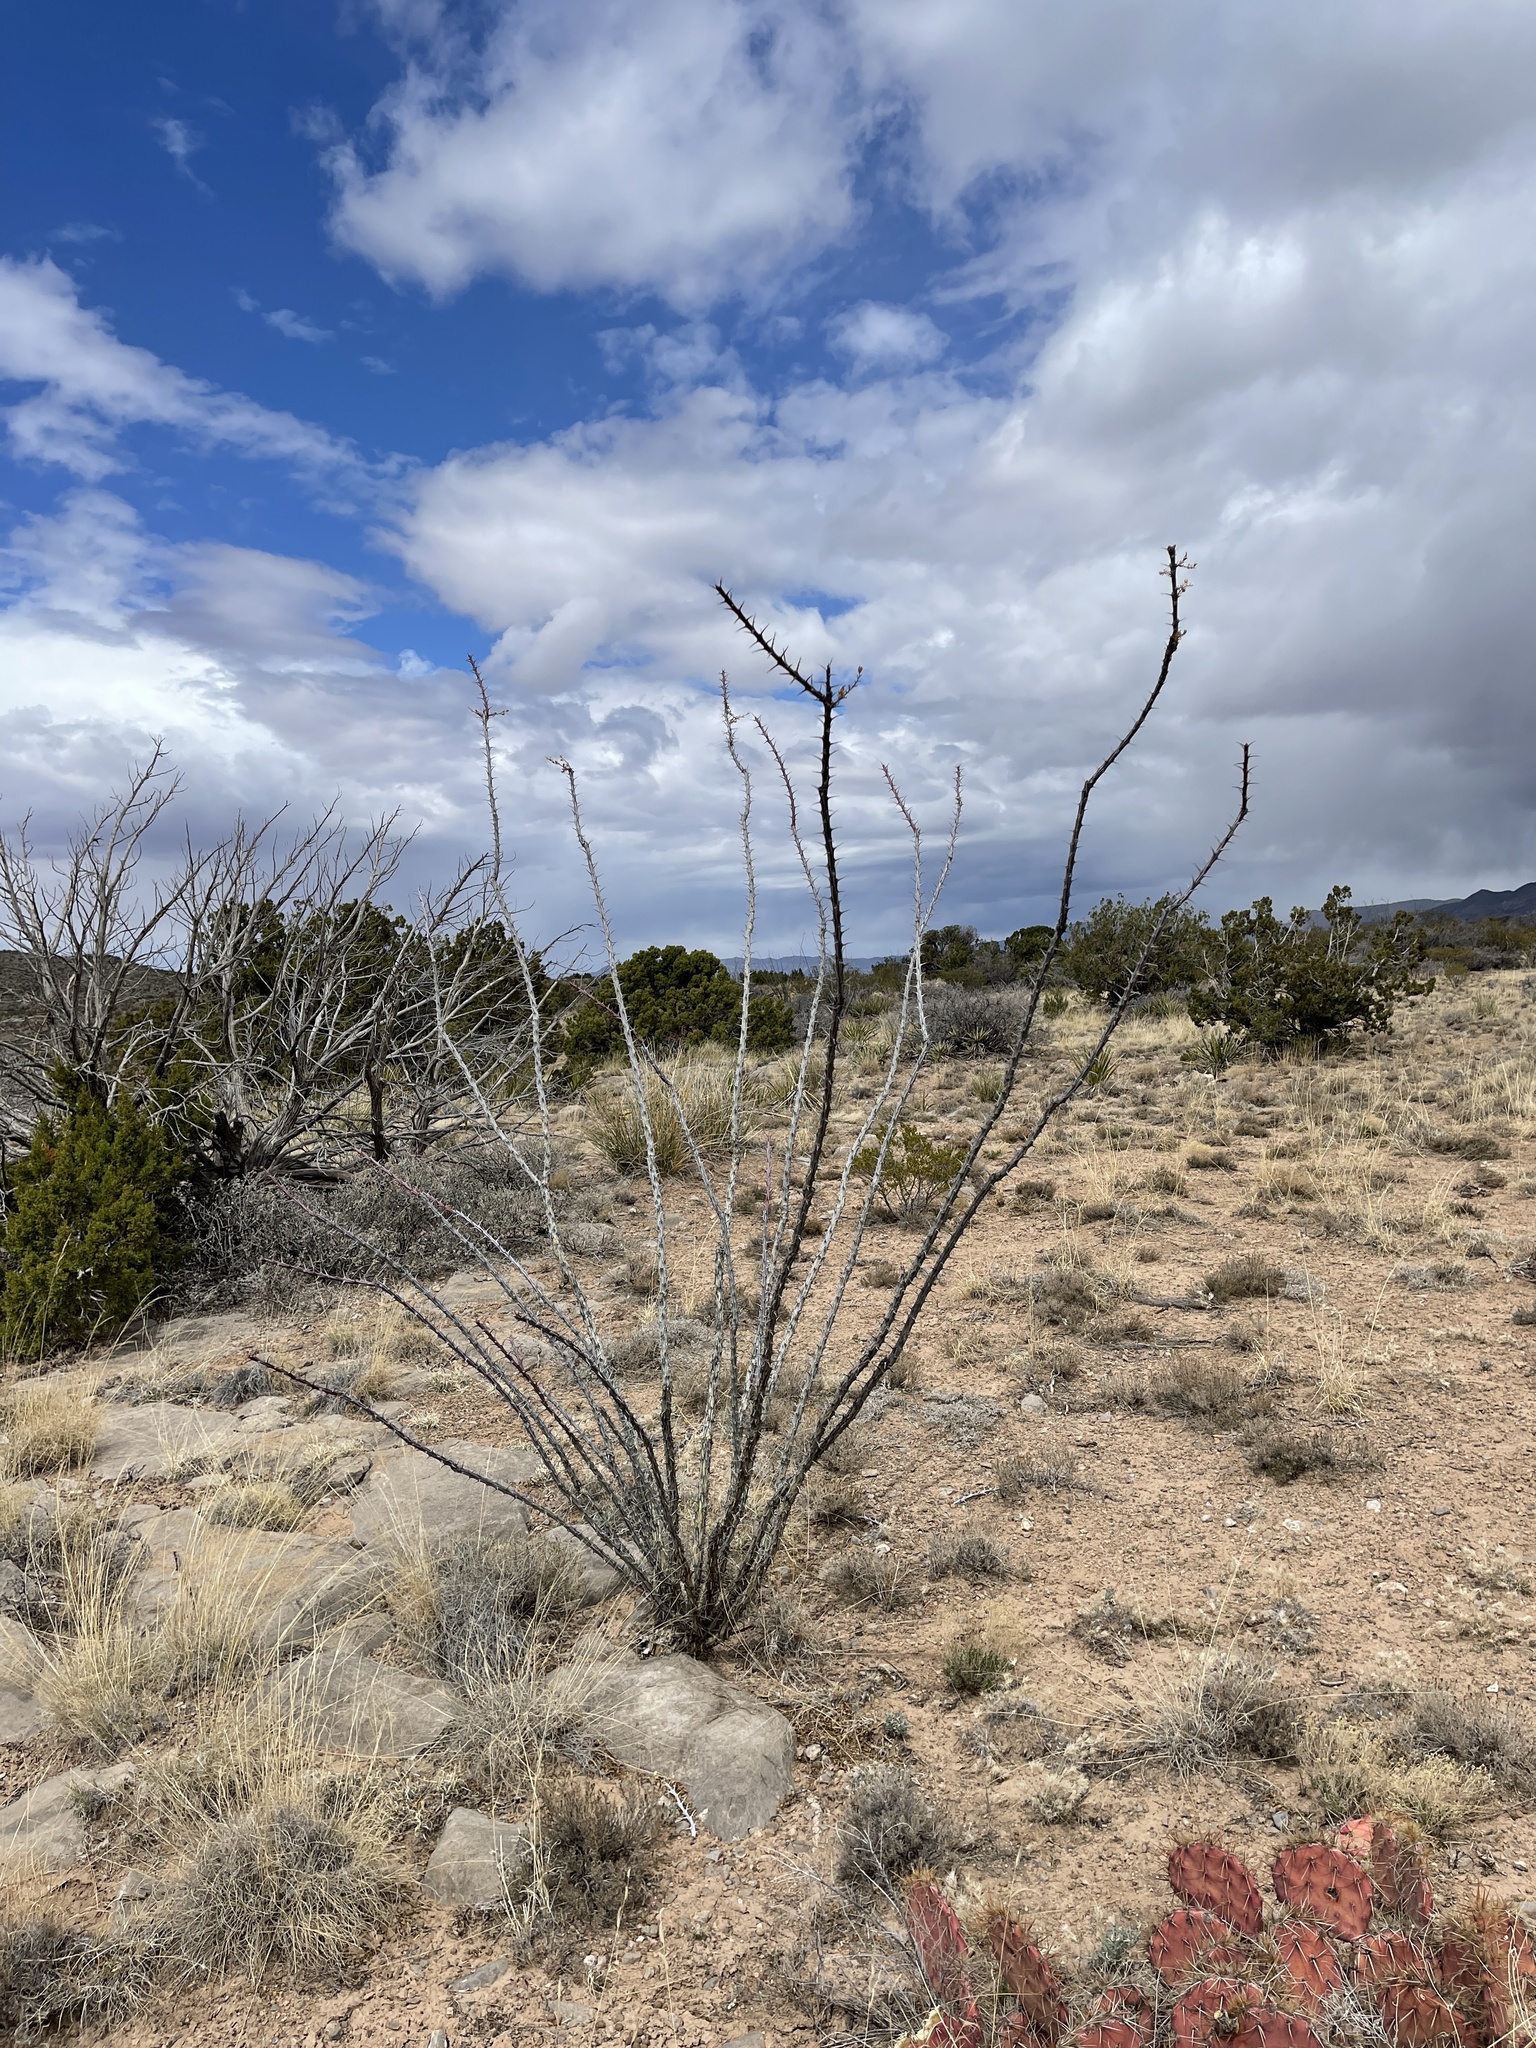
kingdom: Plantae
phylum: Tracheophyta
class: Magnoliopsida
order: Ericales
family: Fouquieriaceae
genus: Fouquieria
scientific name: Fouquieria splendens
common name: Vine-cactus
